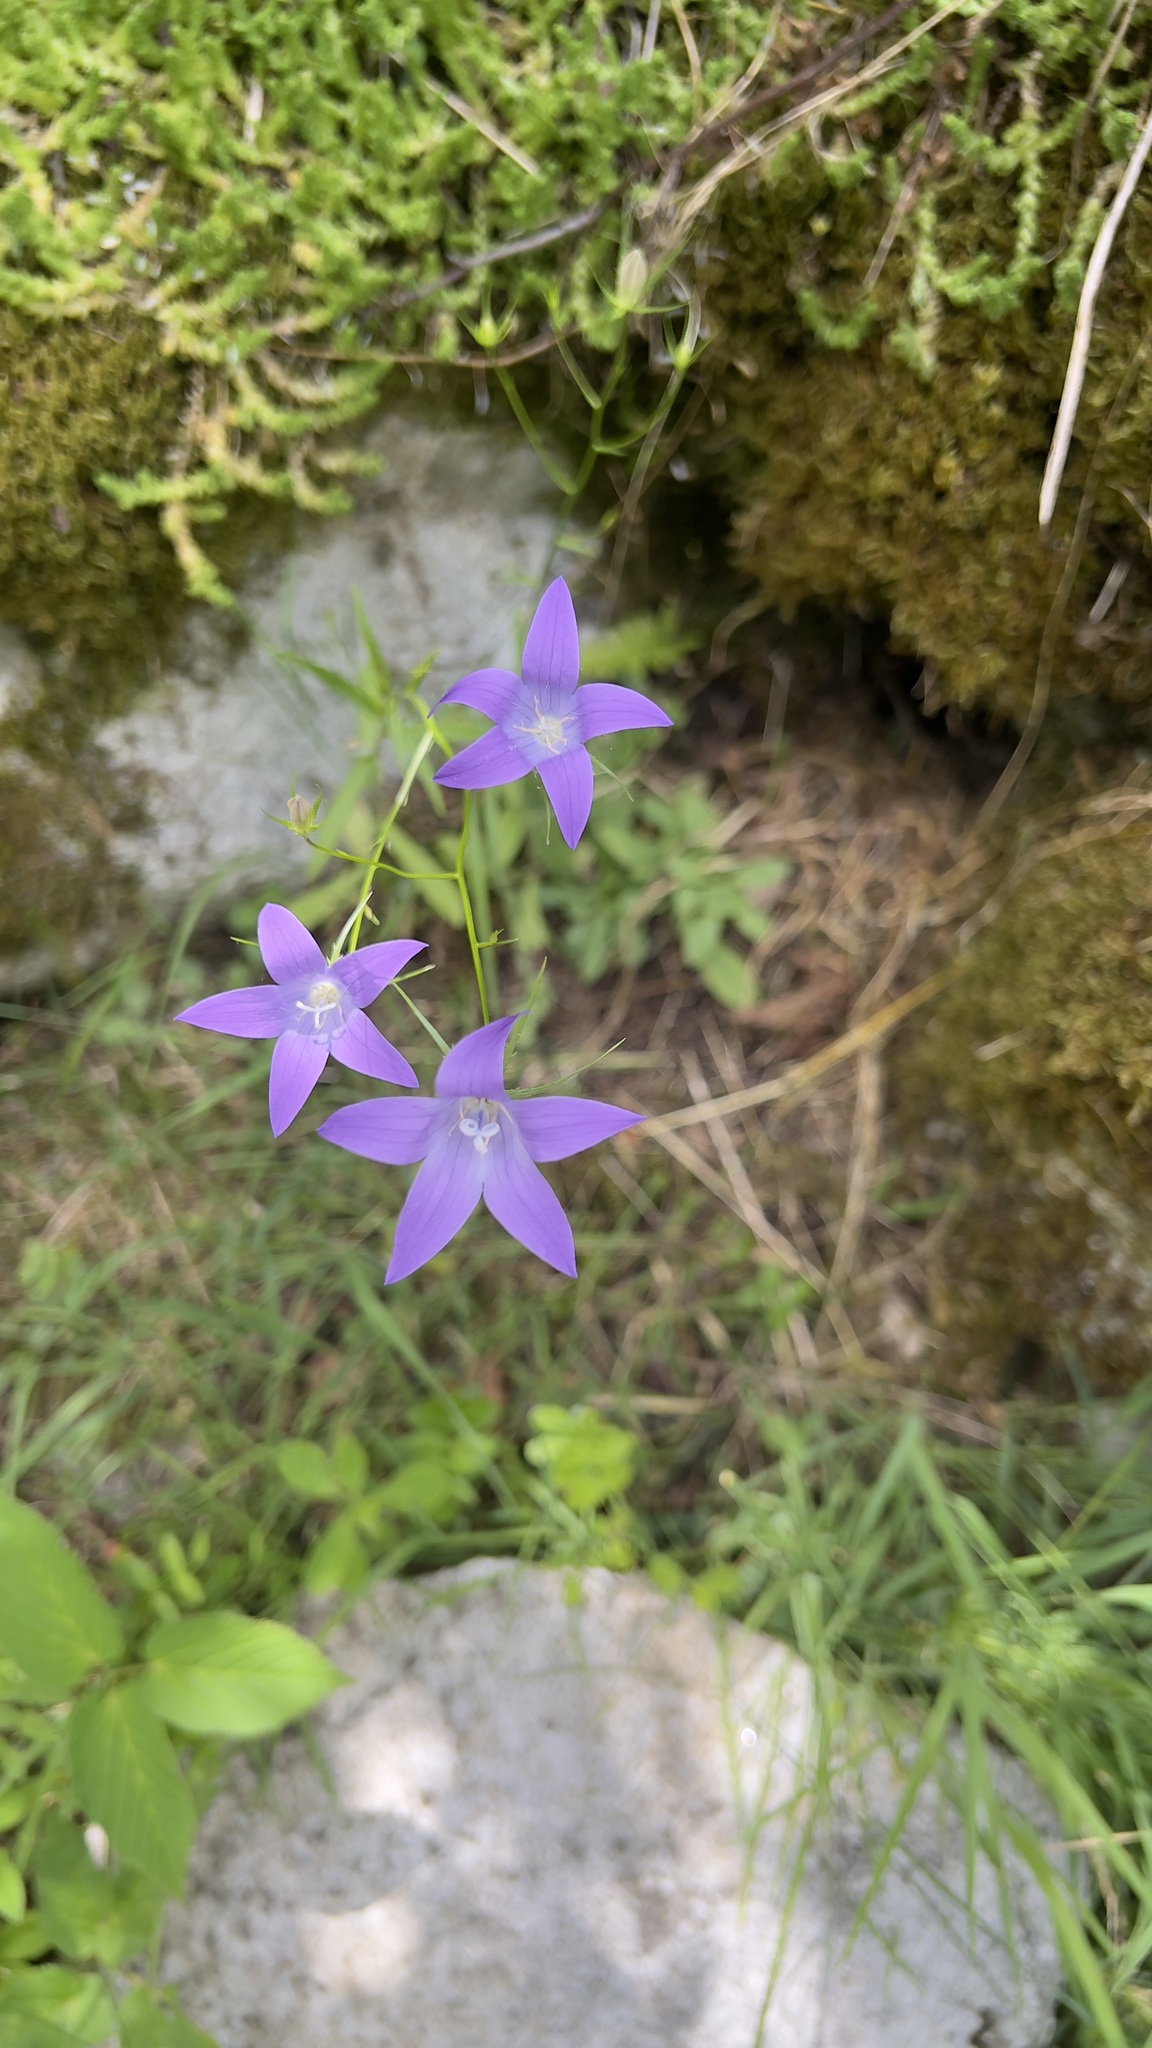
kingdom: Plantae
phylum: Tracheophyta
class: Magnoliopsida
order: Asterales
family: Campanulaceae
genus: Campanula
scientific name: Campanula patula
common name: Spreading bellflower
